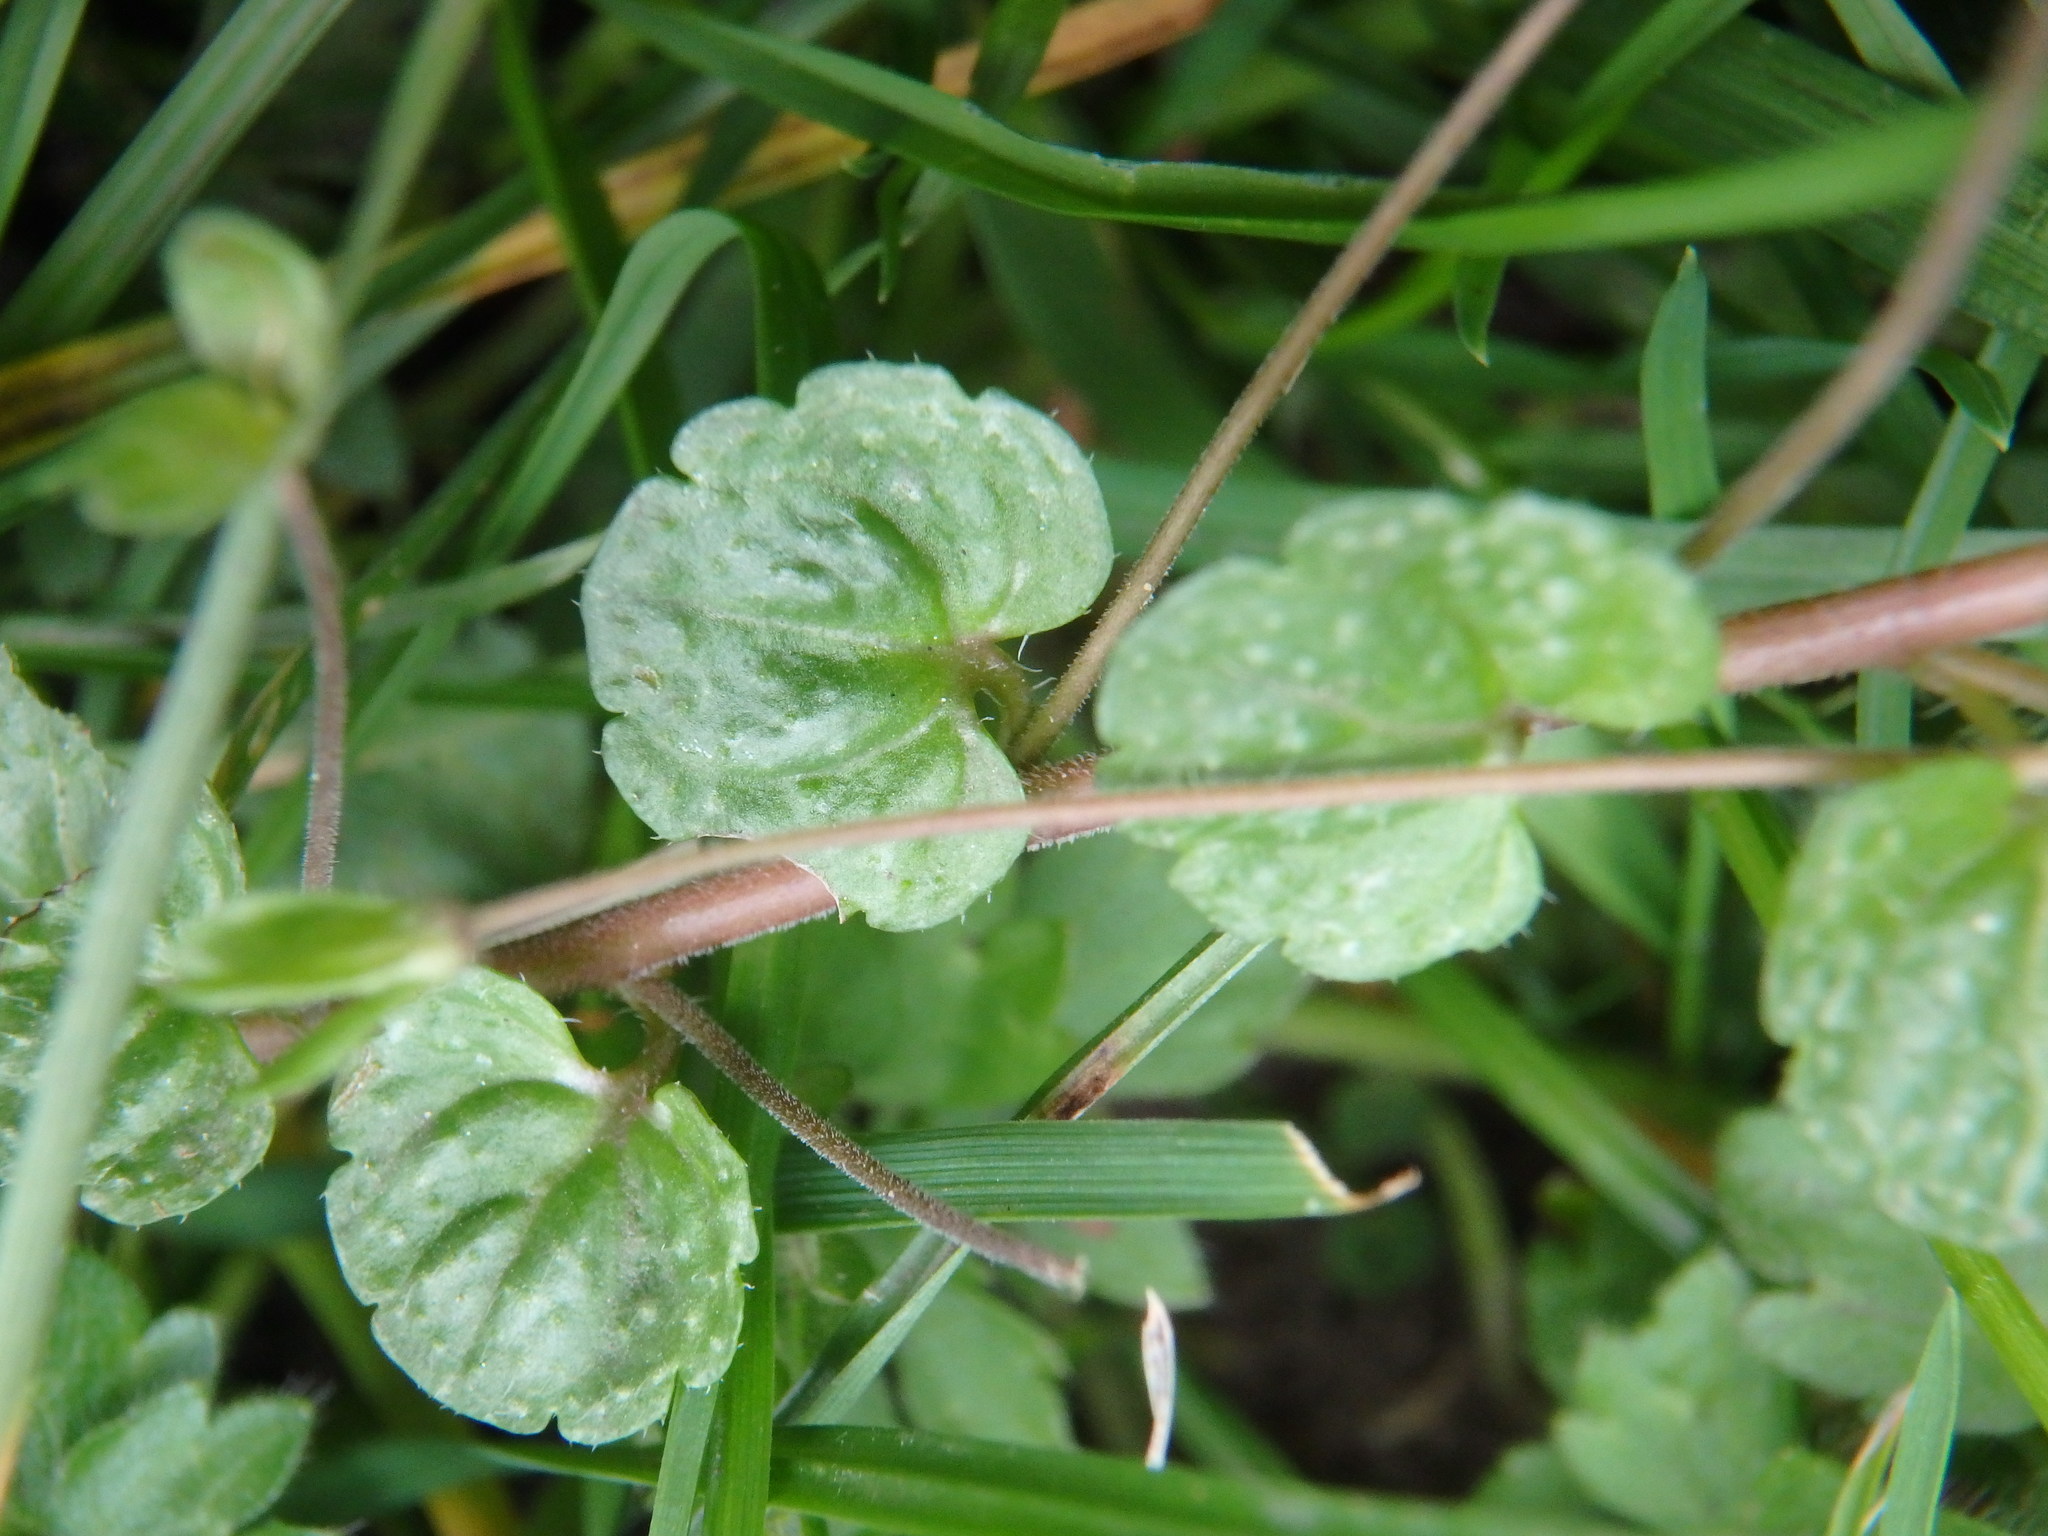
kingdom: Plantae
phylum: Tracheophyta
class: Magnoliopsida
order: Lamiales
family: Plantaginaceae
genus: Veronica
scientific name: Veronica filiformis
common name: Slender speedwell
